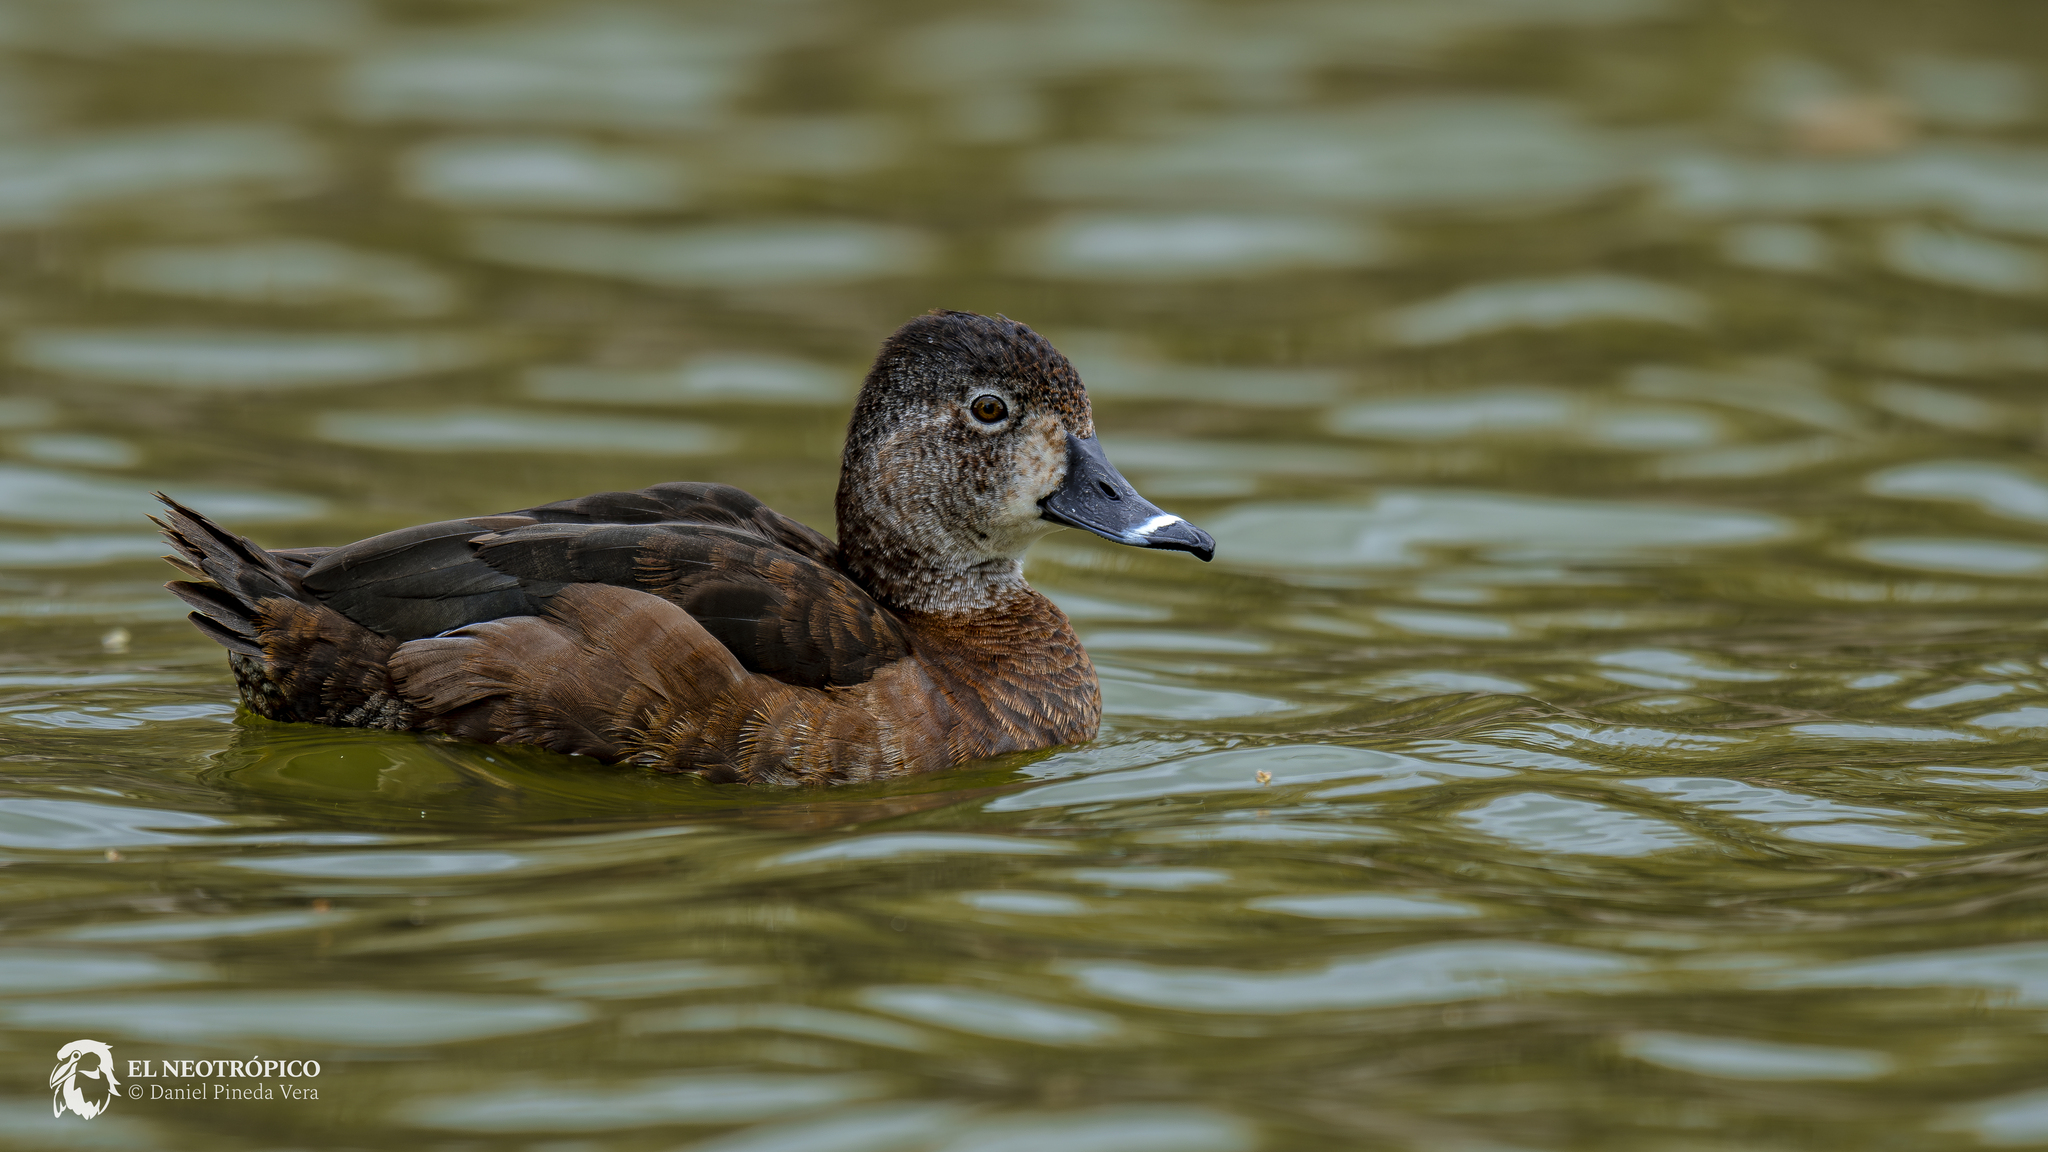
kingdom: Animalia
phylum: Chordata
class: Aves
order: Anseriformes
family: Anatidae
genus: Aythya
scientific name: Aythya collaris
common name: Ring-necked duck
